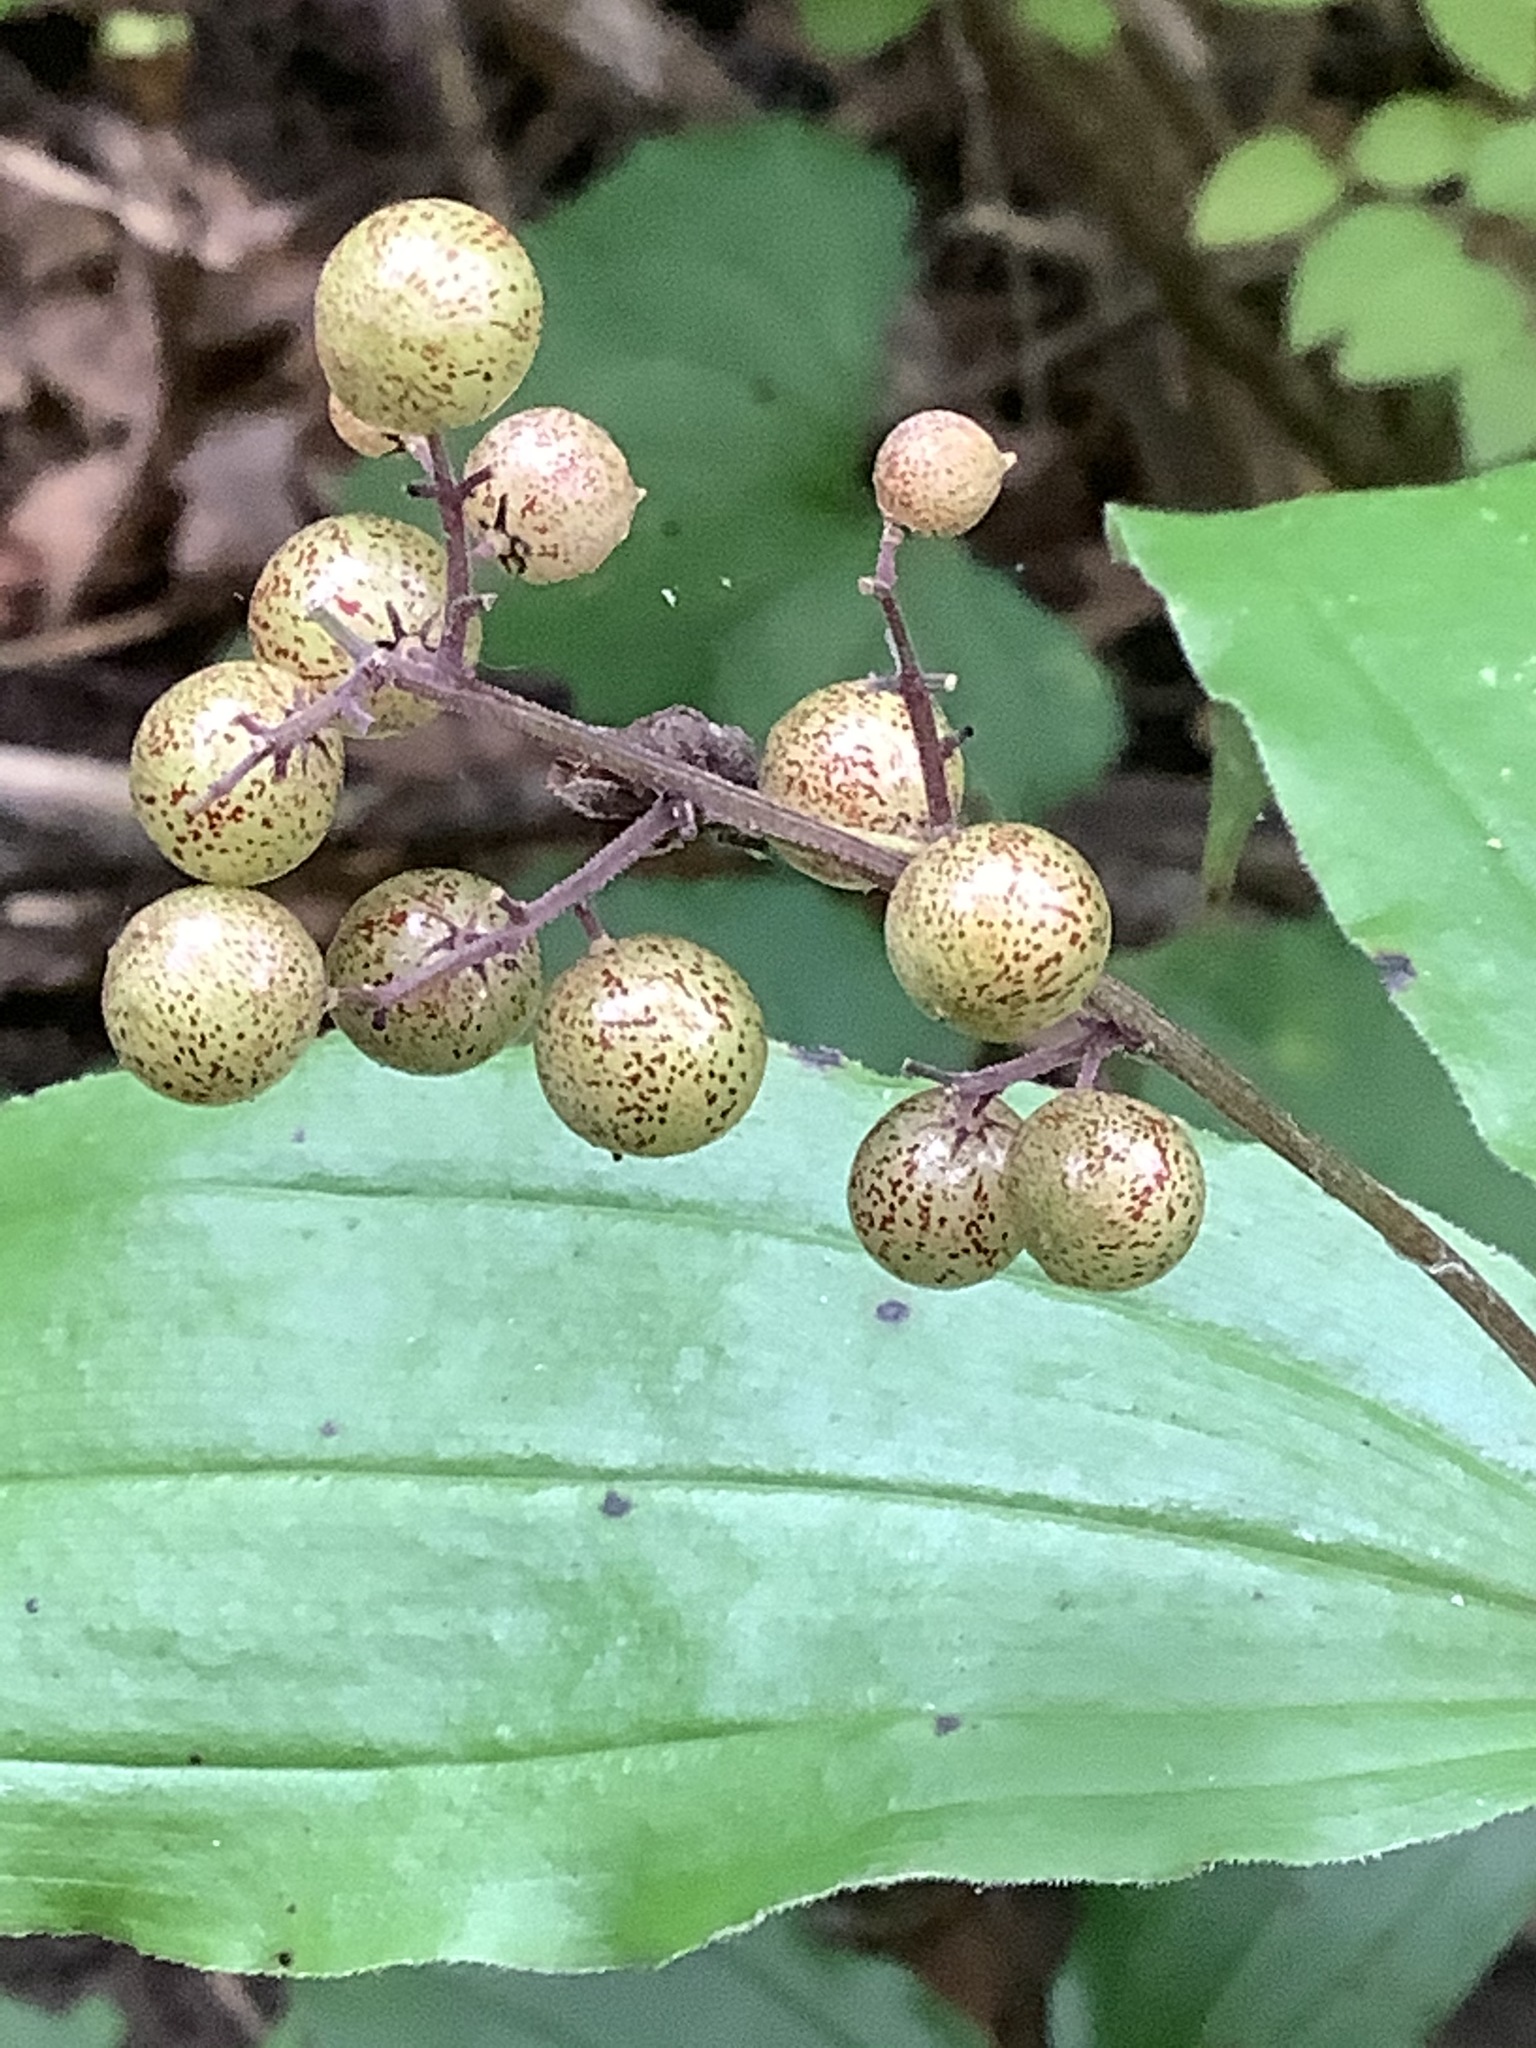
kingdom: Plantae
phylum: Tracheophyta
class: Liliopsida
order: Asparagales
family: Asparagaceae
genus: Maianthemum
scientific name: Maianthemum racemosum
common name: False spikenard
